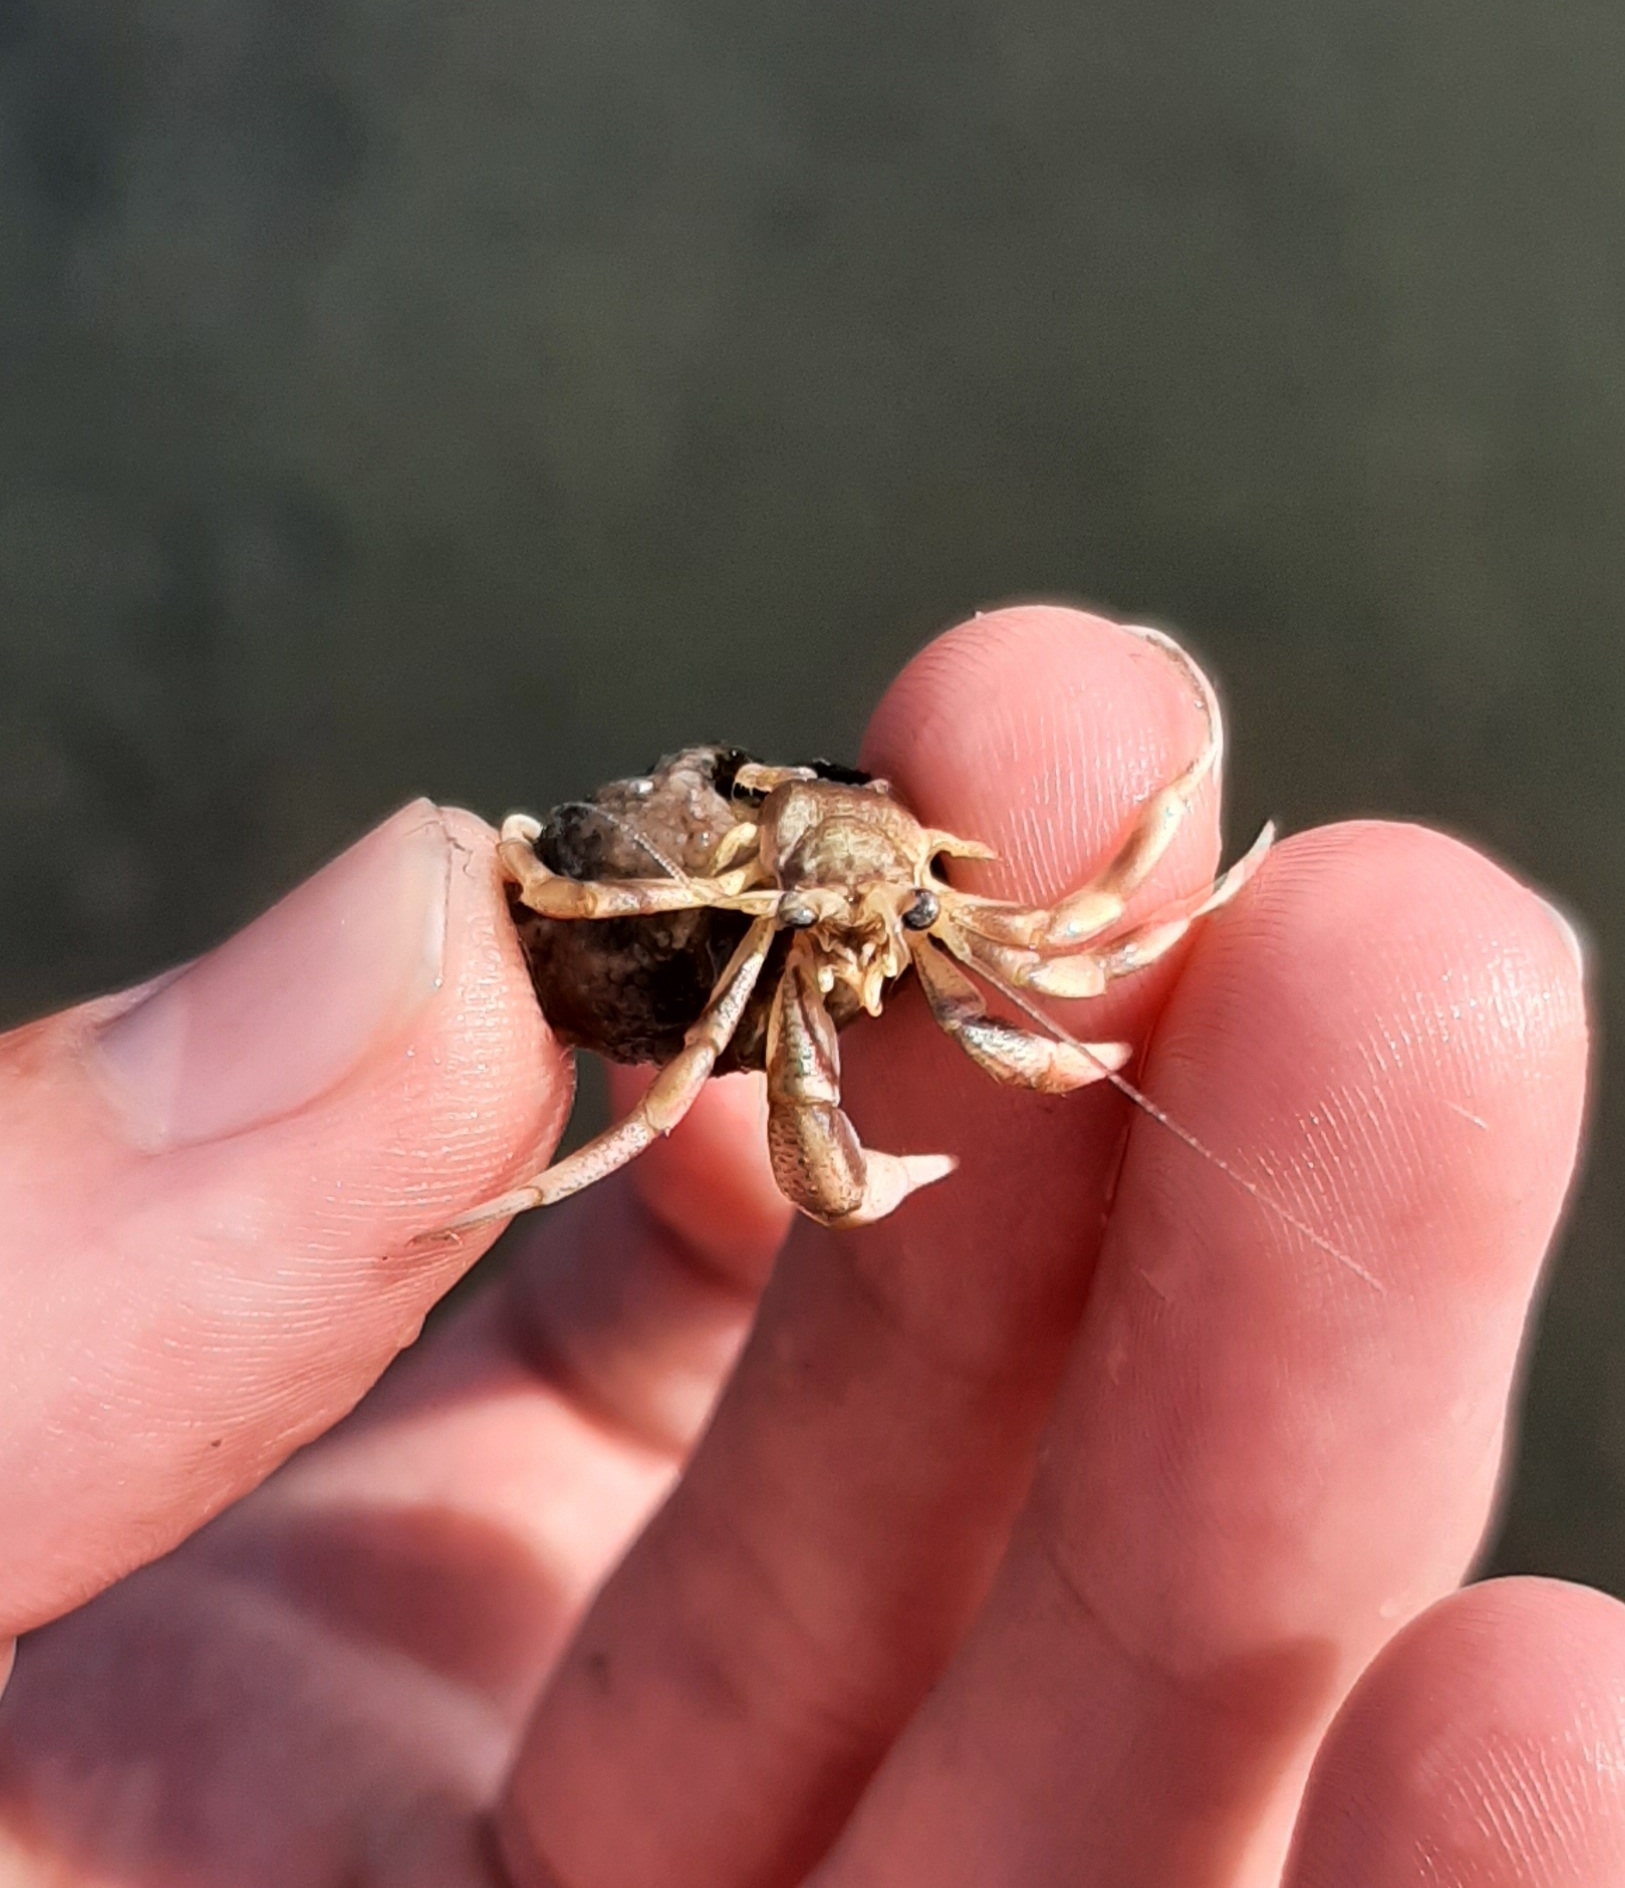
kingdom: Animalia
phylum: Arthropoda
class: Malacostraca
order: Decapoda
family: Paguridae
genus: Pagurus
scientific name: Pagurus longicarpus
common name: Long-armed hermit crab
